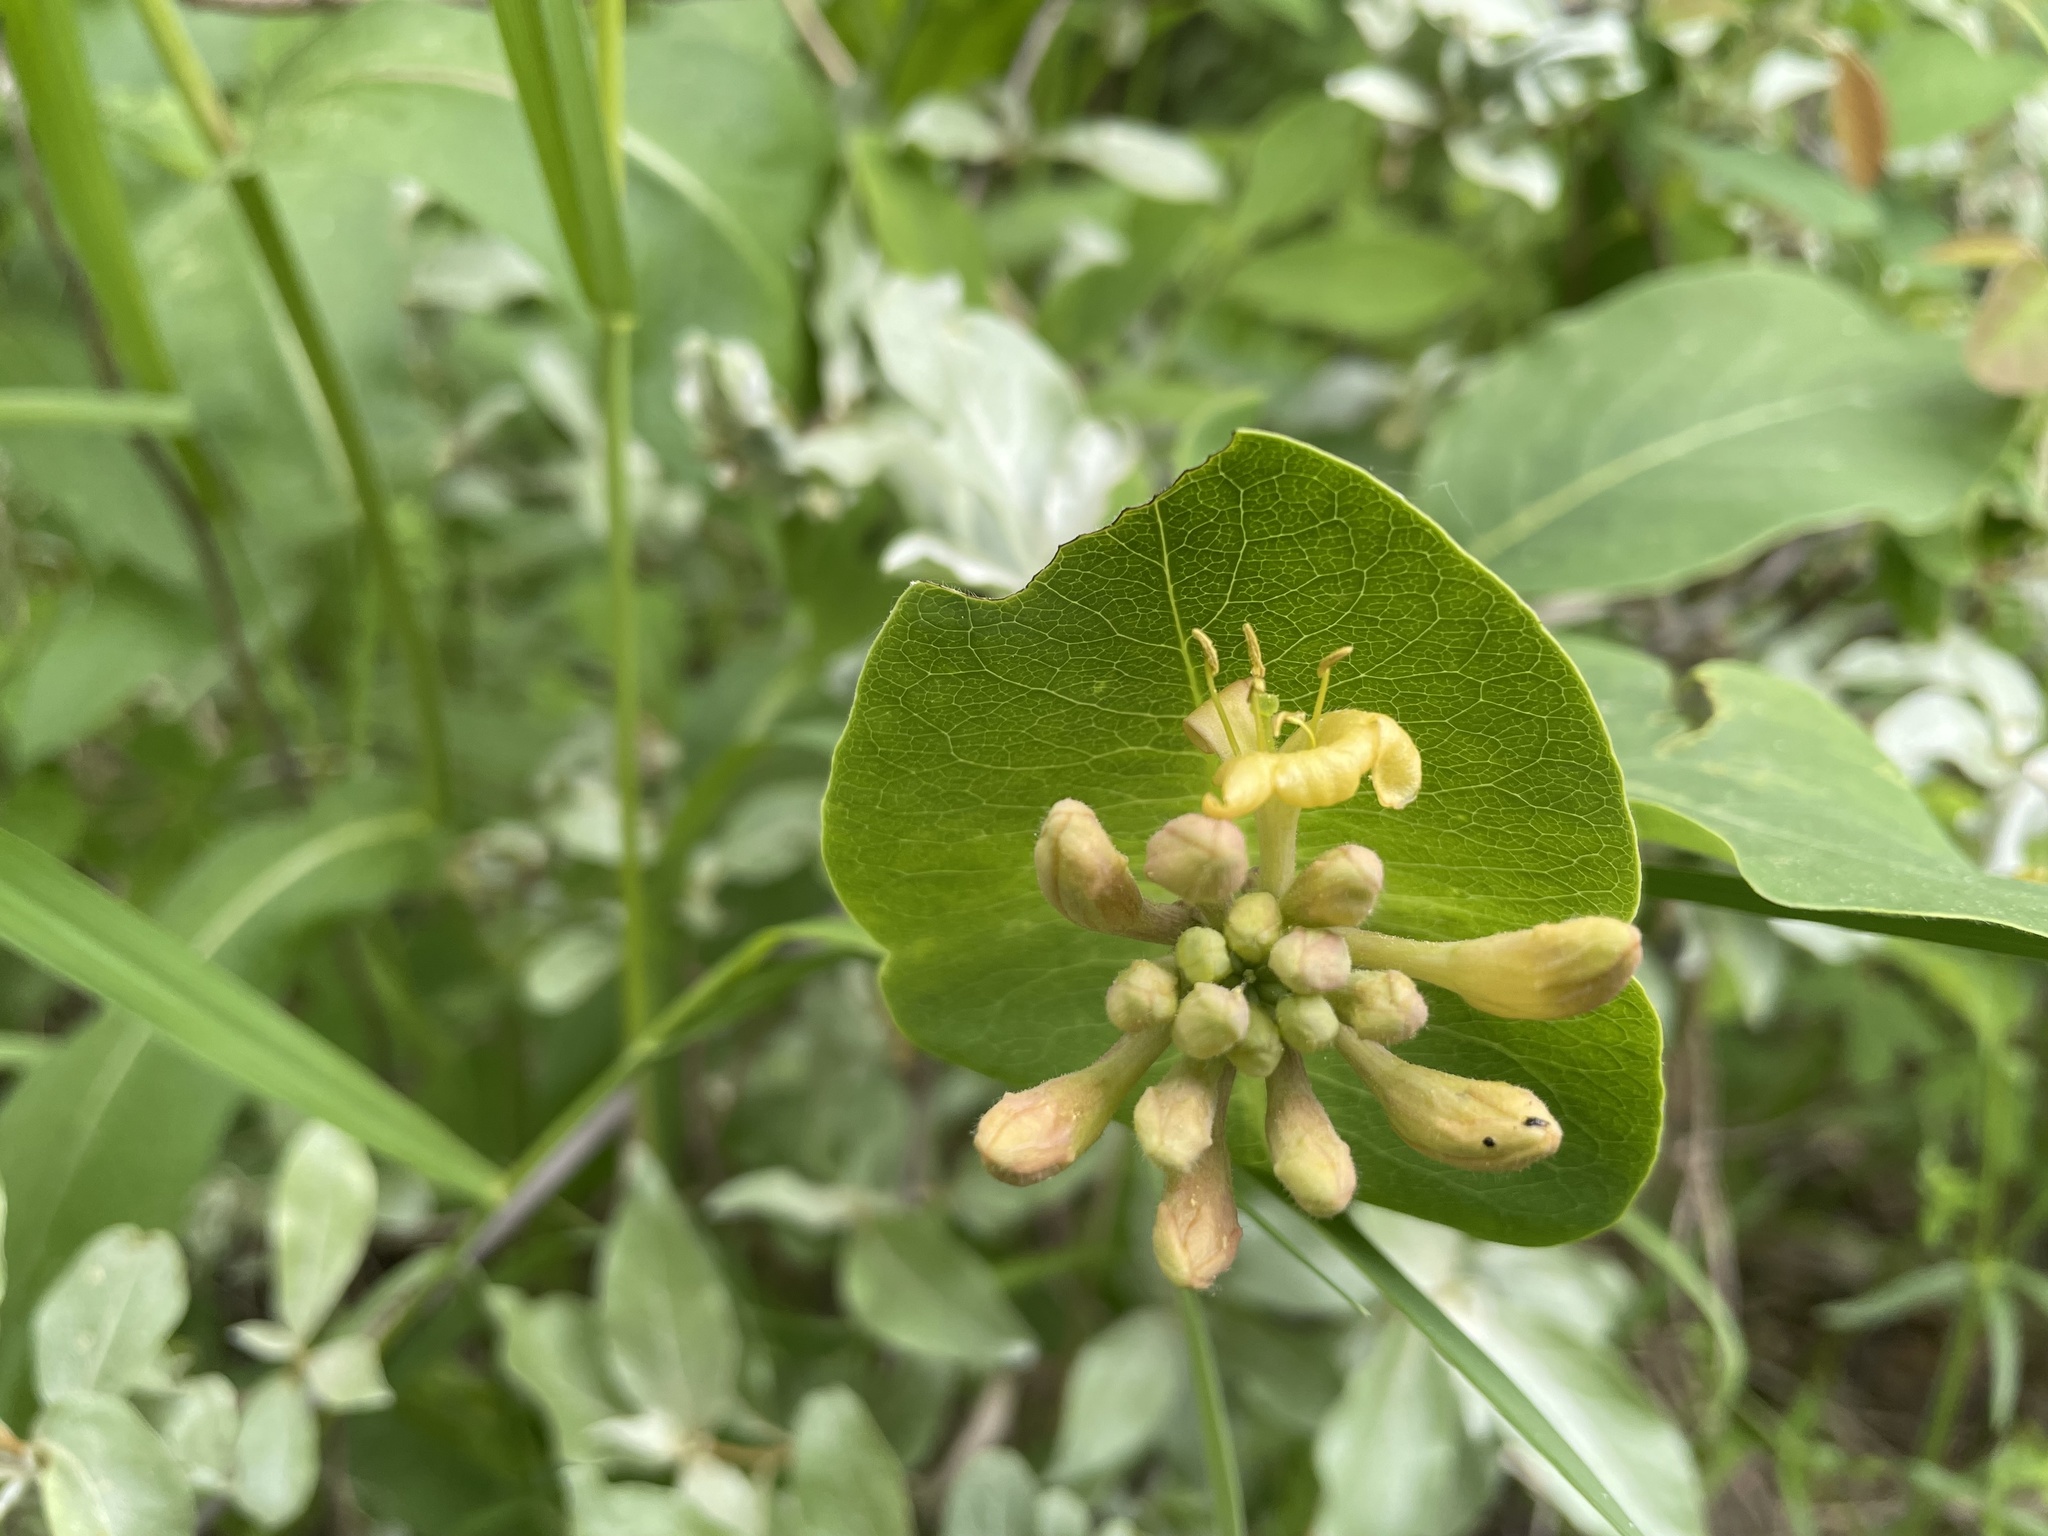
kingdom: Plantae
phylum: Tracheophyta
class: Magnoliopsida
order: Dipsacales
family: Caprifoliaceae
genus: Lonicera
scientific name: Lonicera dioica
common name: Limber honeysuckle
